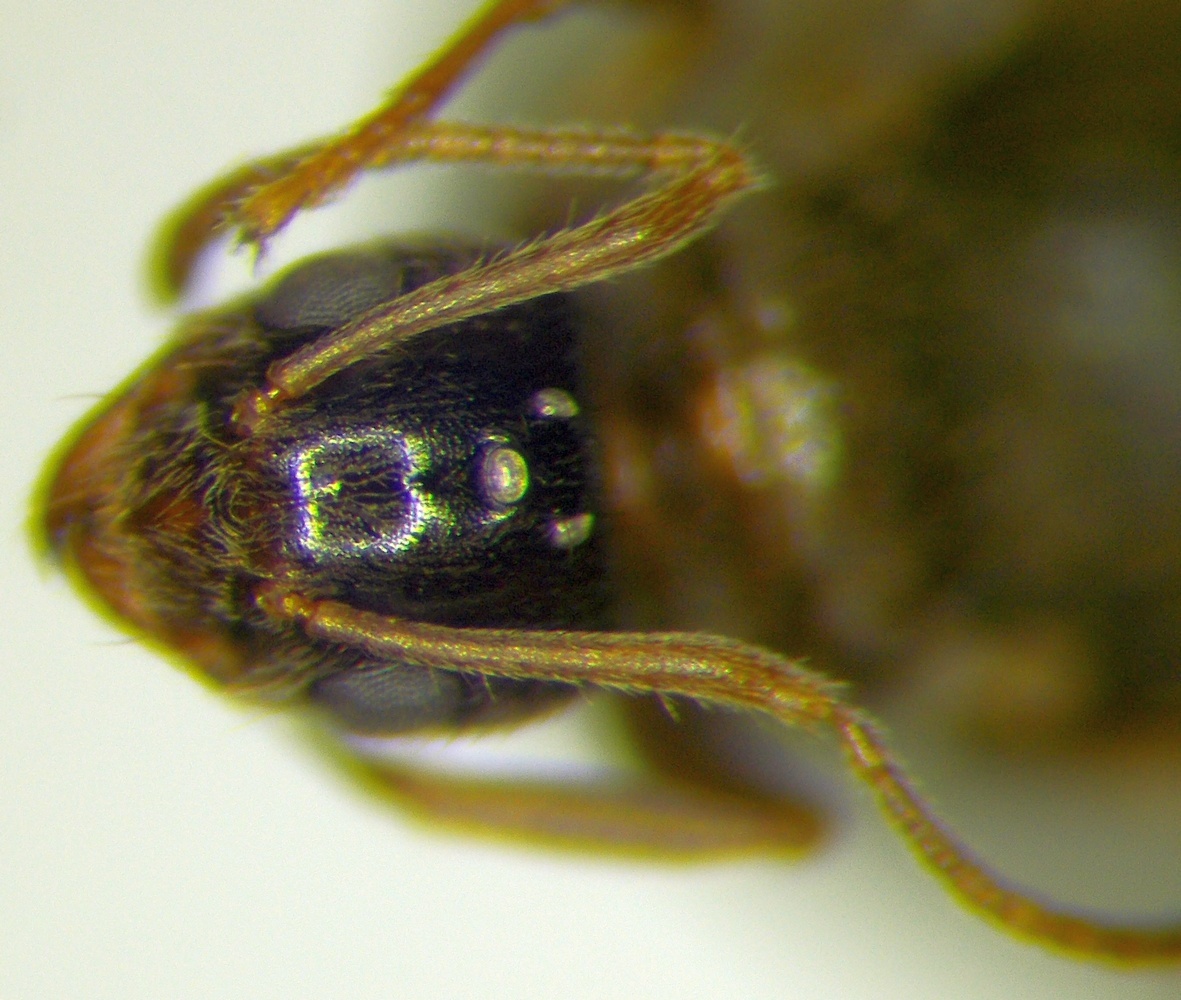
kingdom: Animalia
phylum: Arthropoda
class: Insecta
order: Hymenoptera
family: Formicidae
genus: Paratrechina
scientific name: Paratrechina jaegerskioeldi
